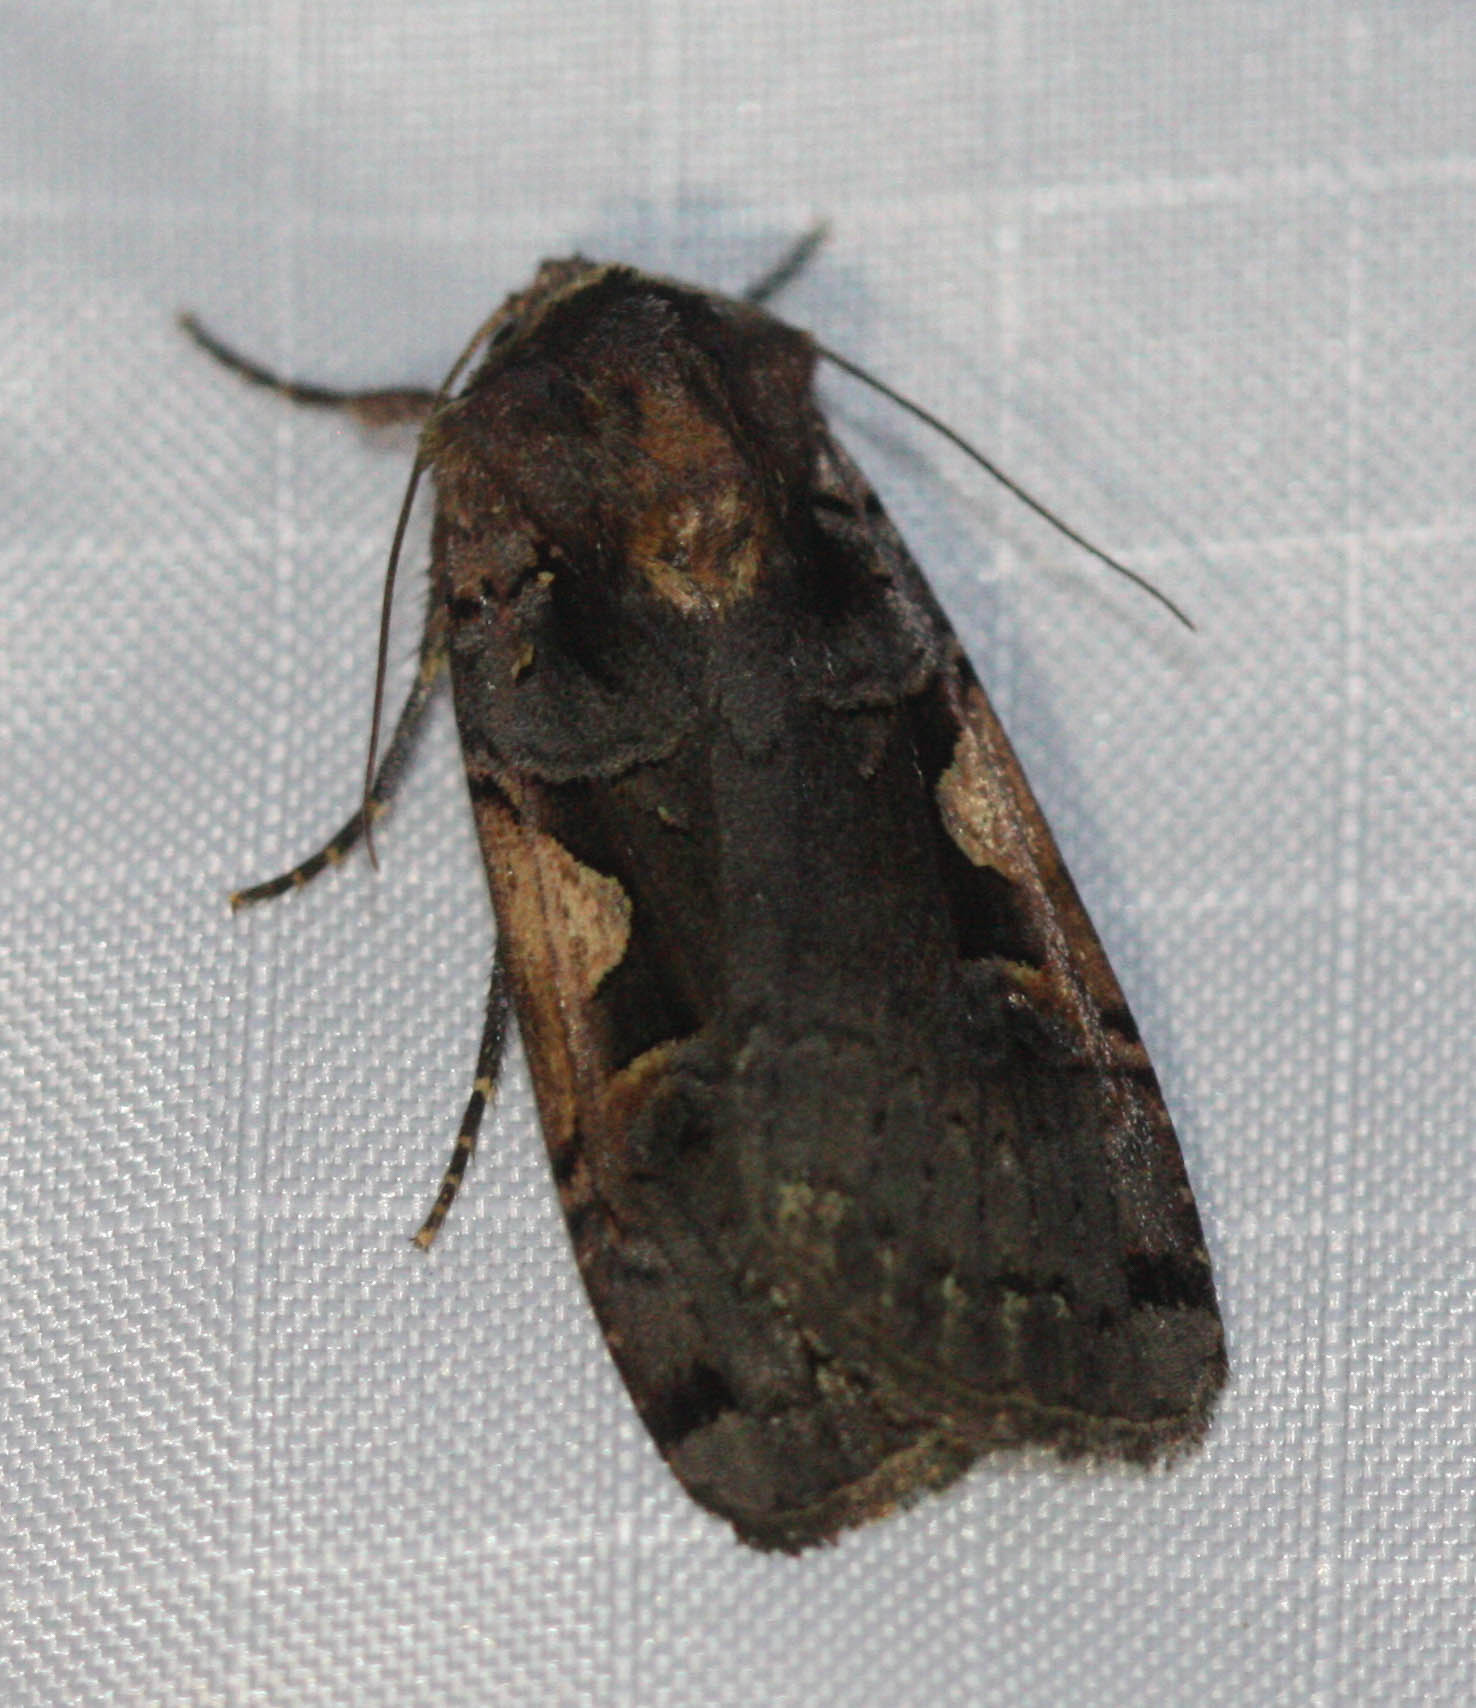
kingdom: Animalia
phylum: Arthropoda
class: Insecta
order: Lepidoptera
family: Noctuidae
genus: Xestia
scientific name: Xestia c-nigrum
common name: Setaceous hebrew character
